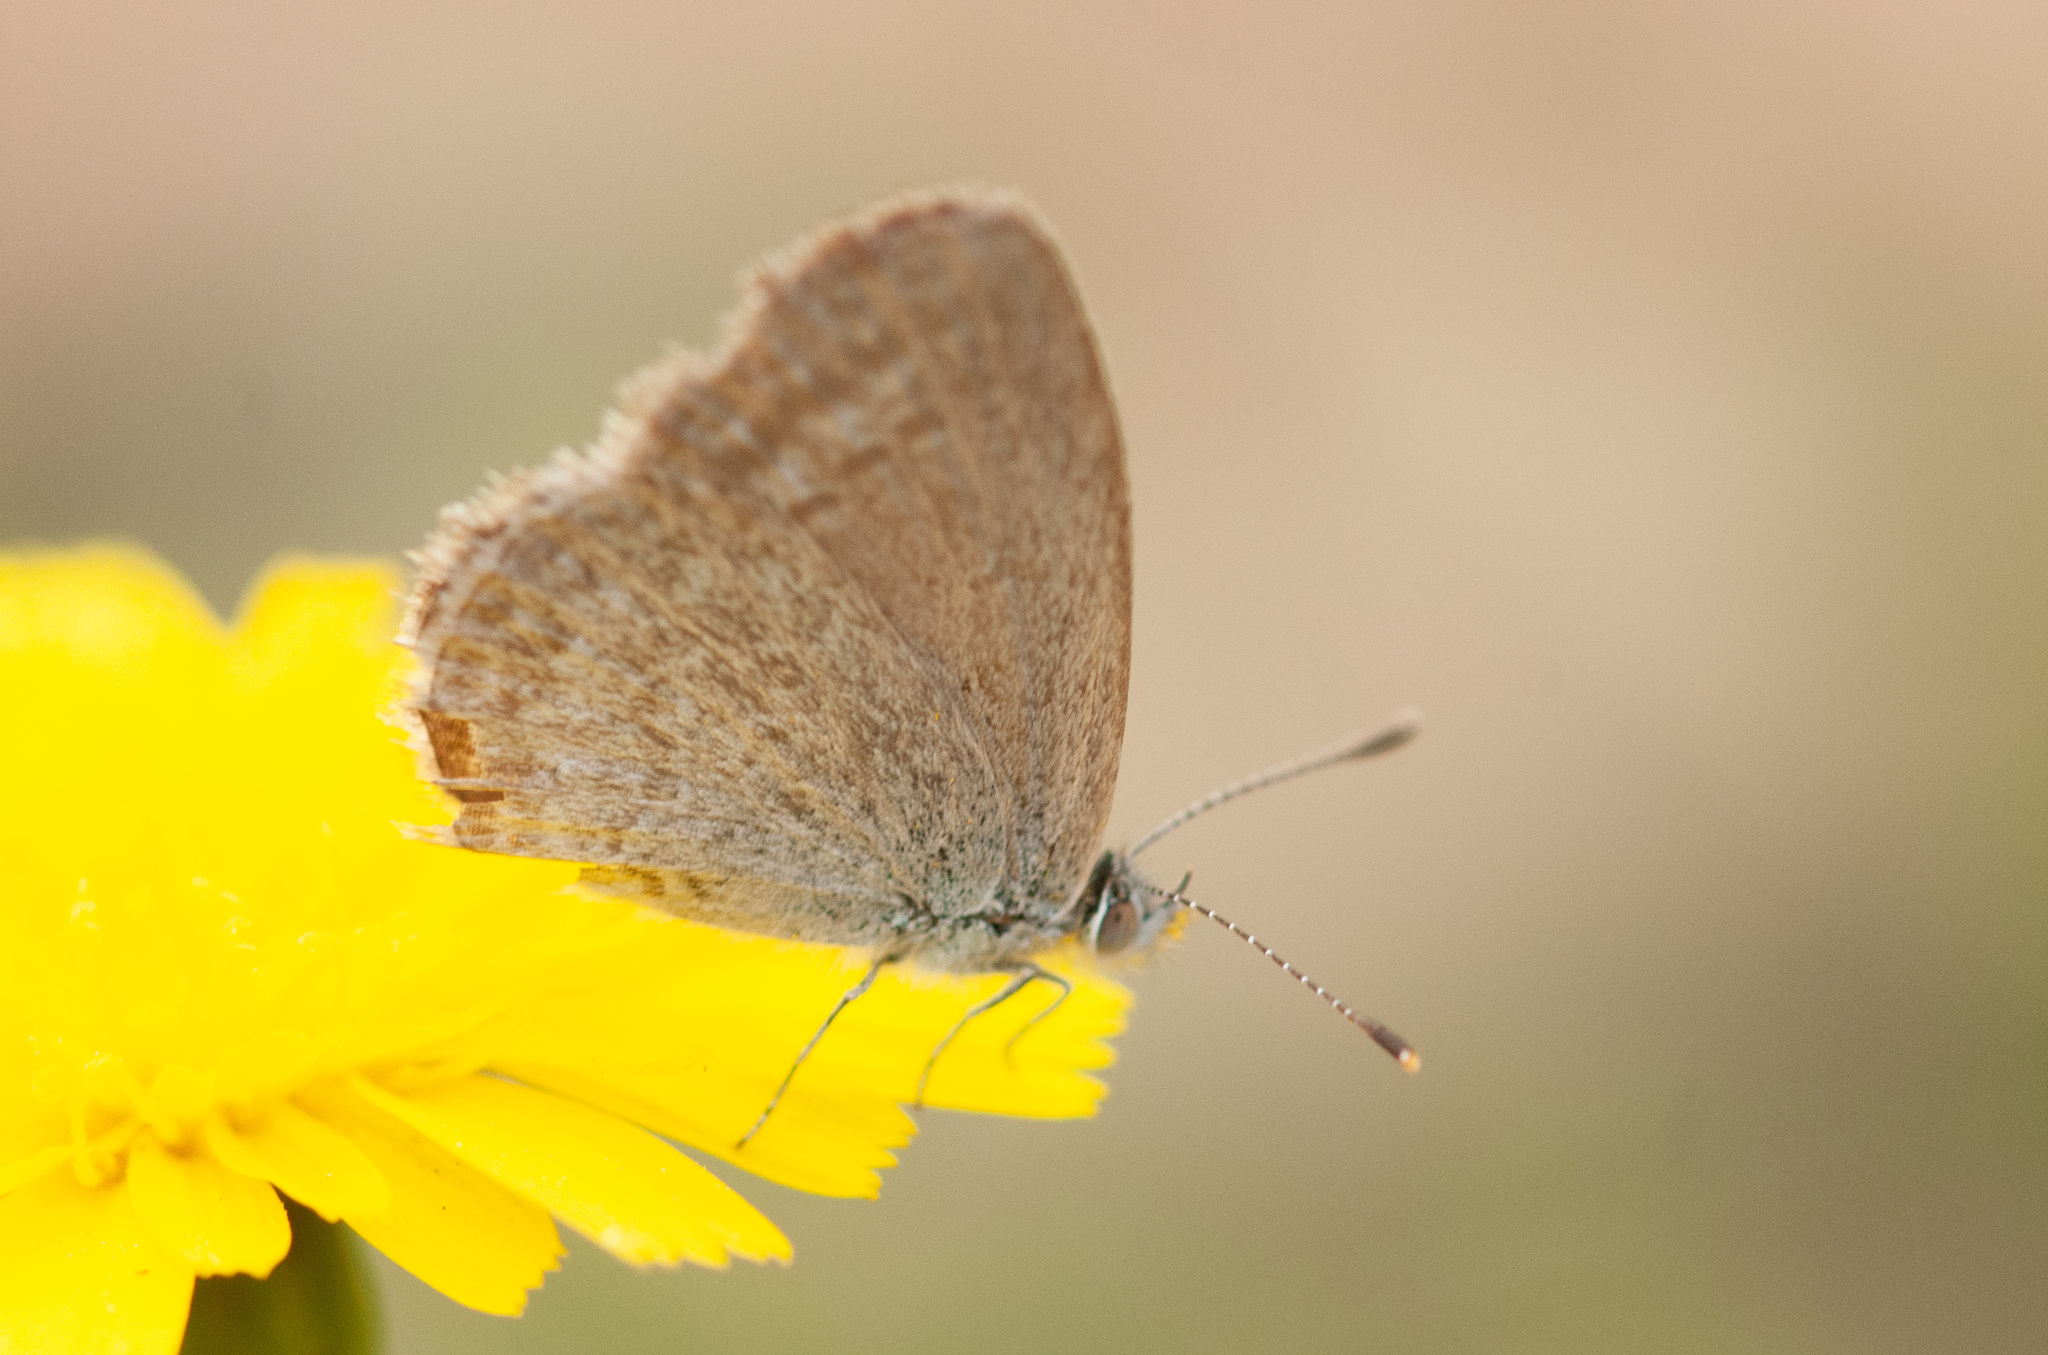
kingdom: Animalia
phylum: Arthropoda
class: Insecta
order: Lepidoptera
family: Lycaenidae
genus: Zizina
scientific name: Zizina otis
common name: Lesser grass blue
